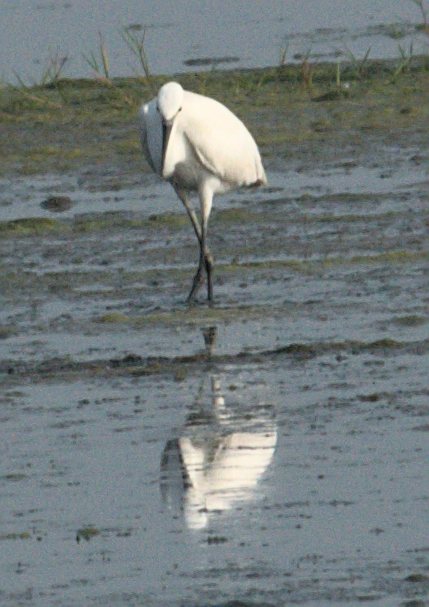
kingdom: Animalia
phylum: Chordata
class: Aves
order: Pelecaniformes
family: Ardeidae
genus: Egretta
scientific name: Egretta garzetta
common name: Little egret
